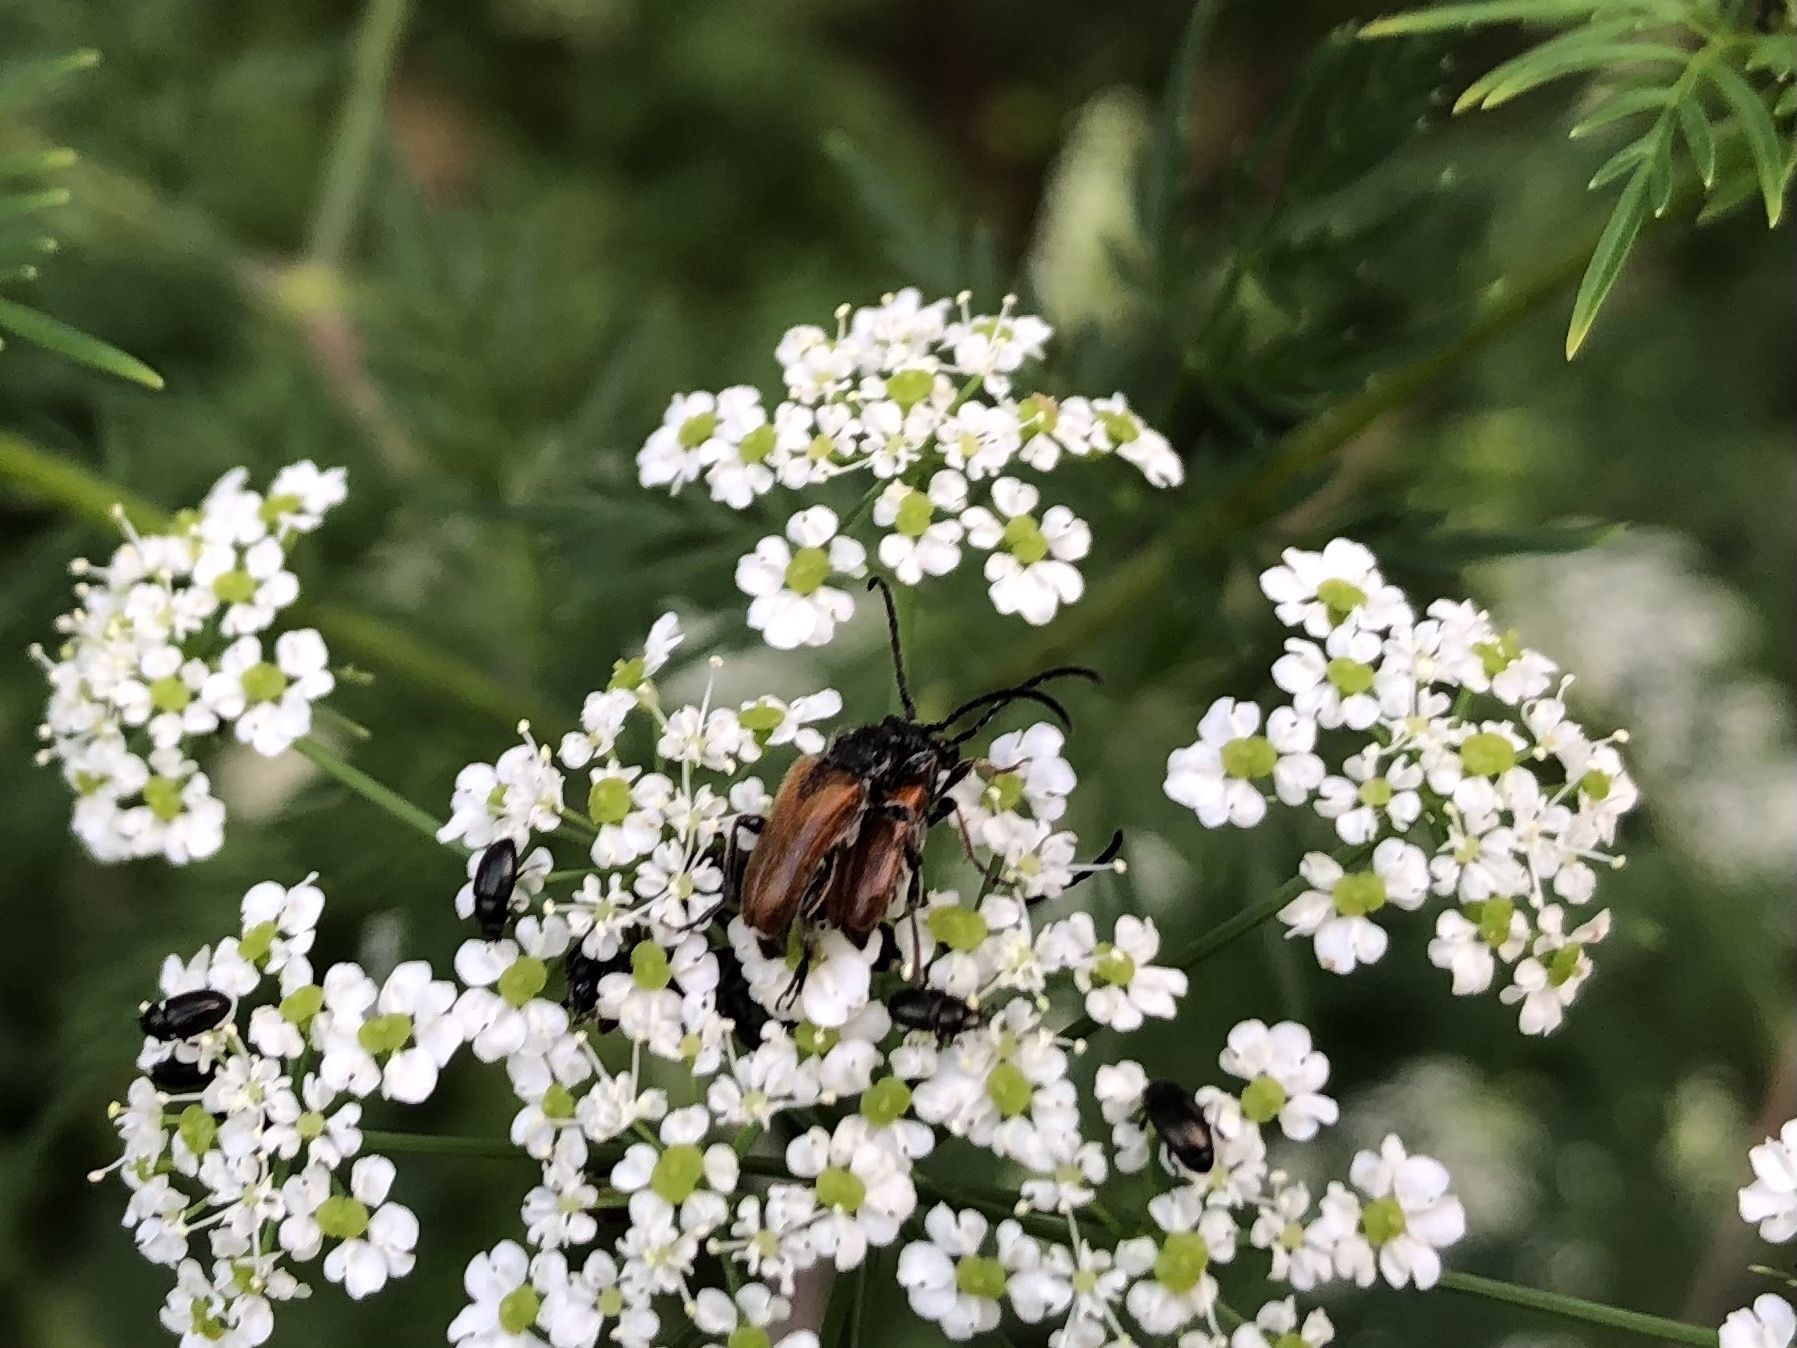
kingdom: Animalia
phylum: Arthropoda
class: Insecta
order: Coleoptera
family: Cerambycidae
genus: Pseudovadonia
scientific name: Pseudovadonia livida
